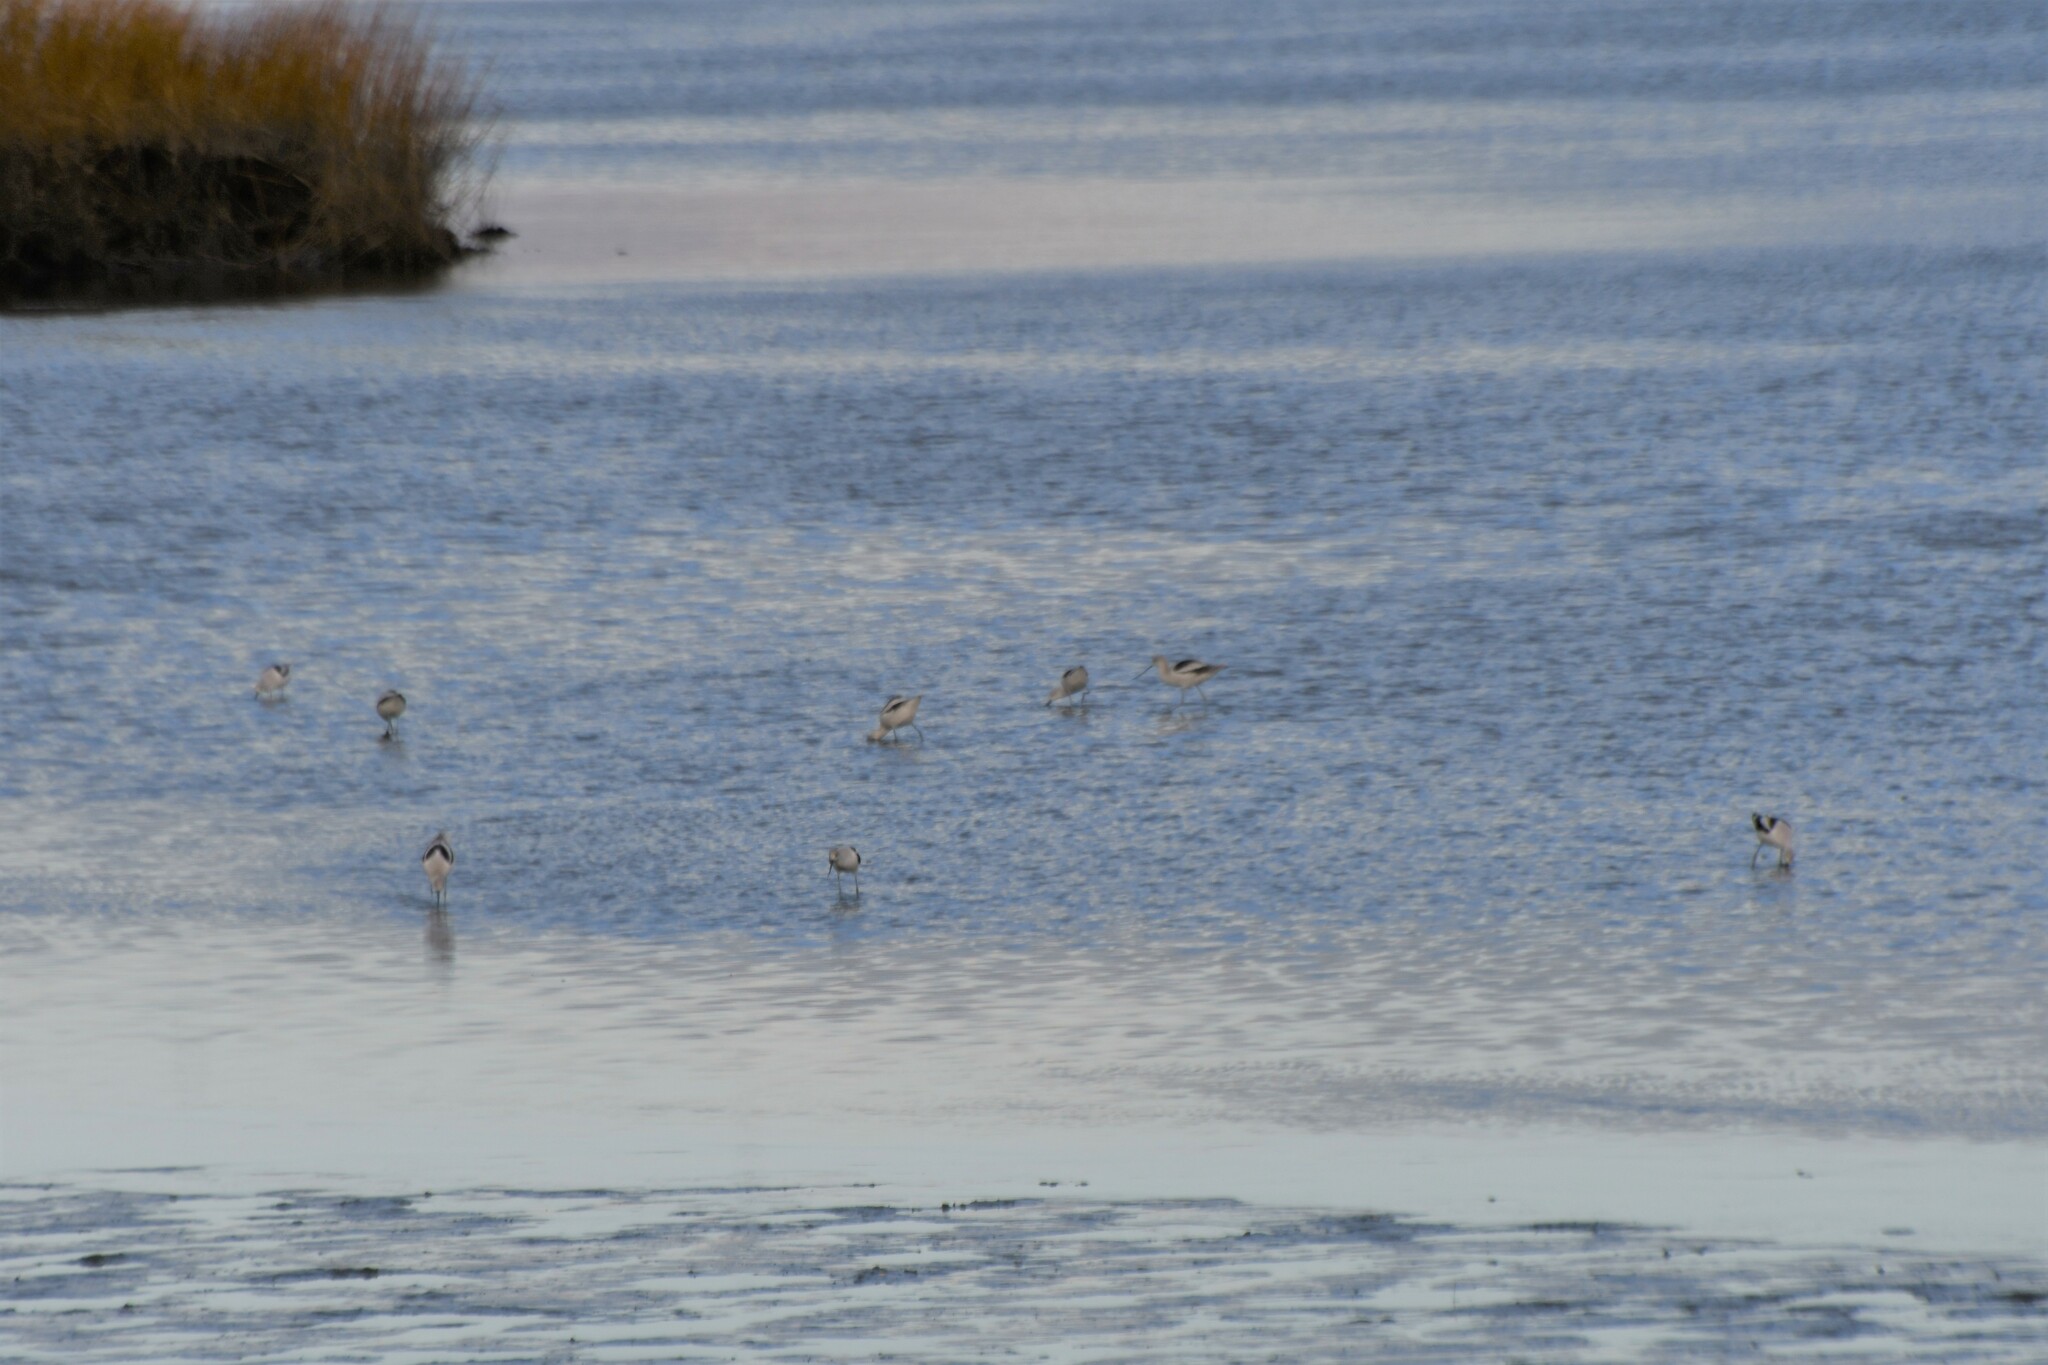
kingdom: Animalia
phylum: Chordata
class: Aves
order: Charadriiformes
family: Recurvirostridae
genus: Recurvirostra
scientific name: Recurvirostra americana
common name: American avocet
